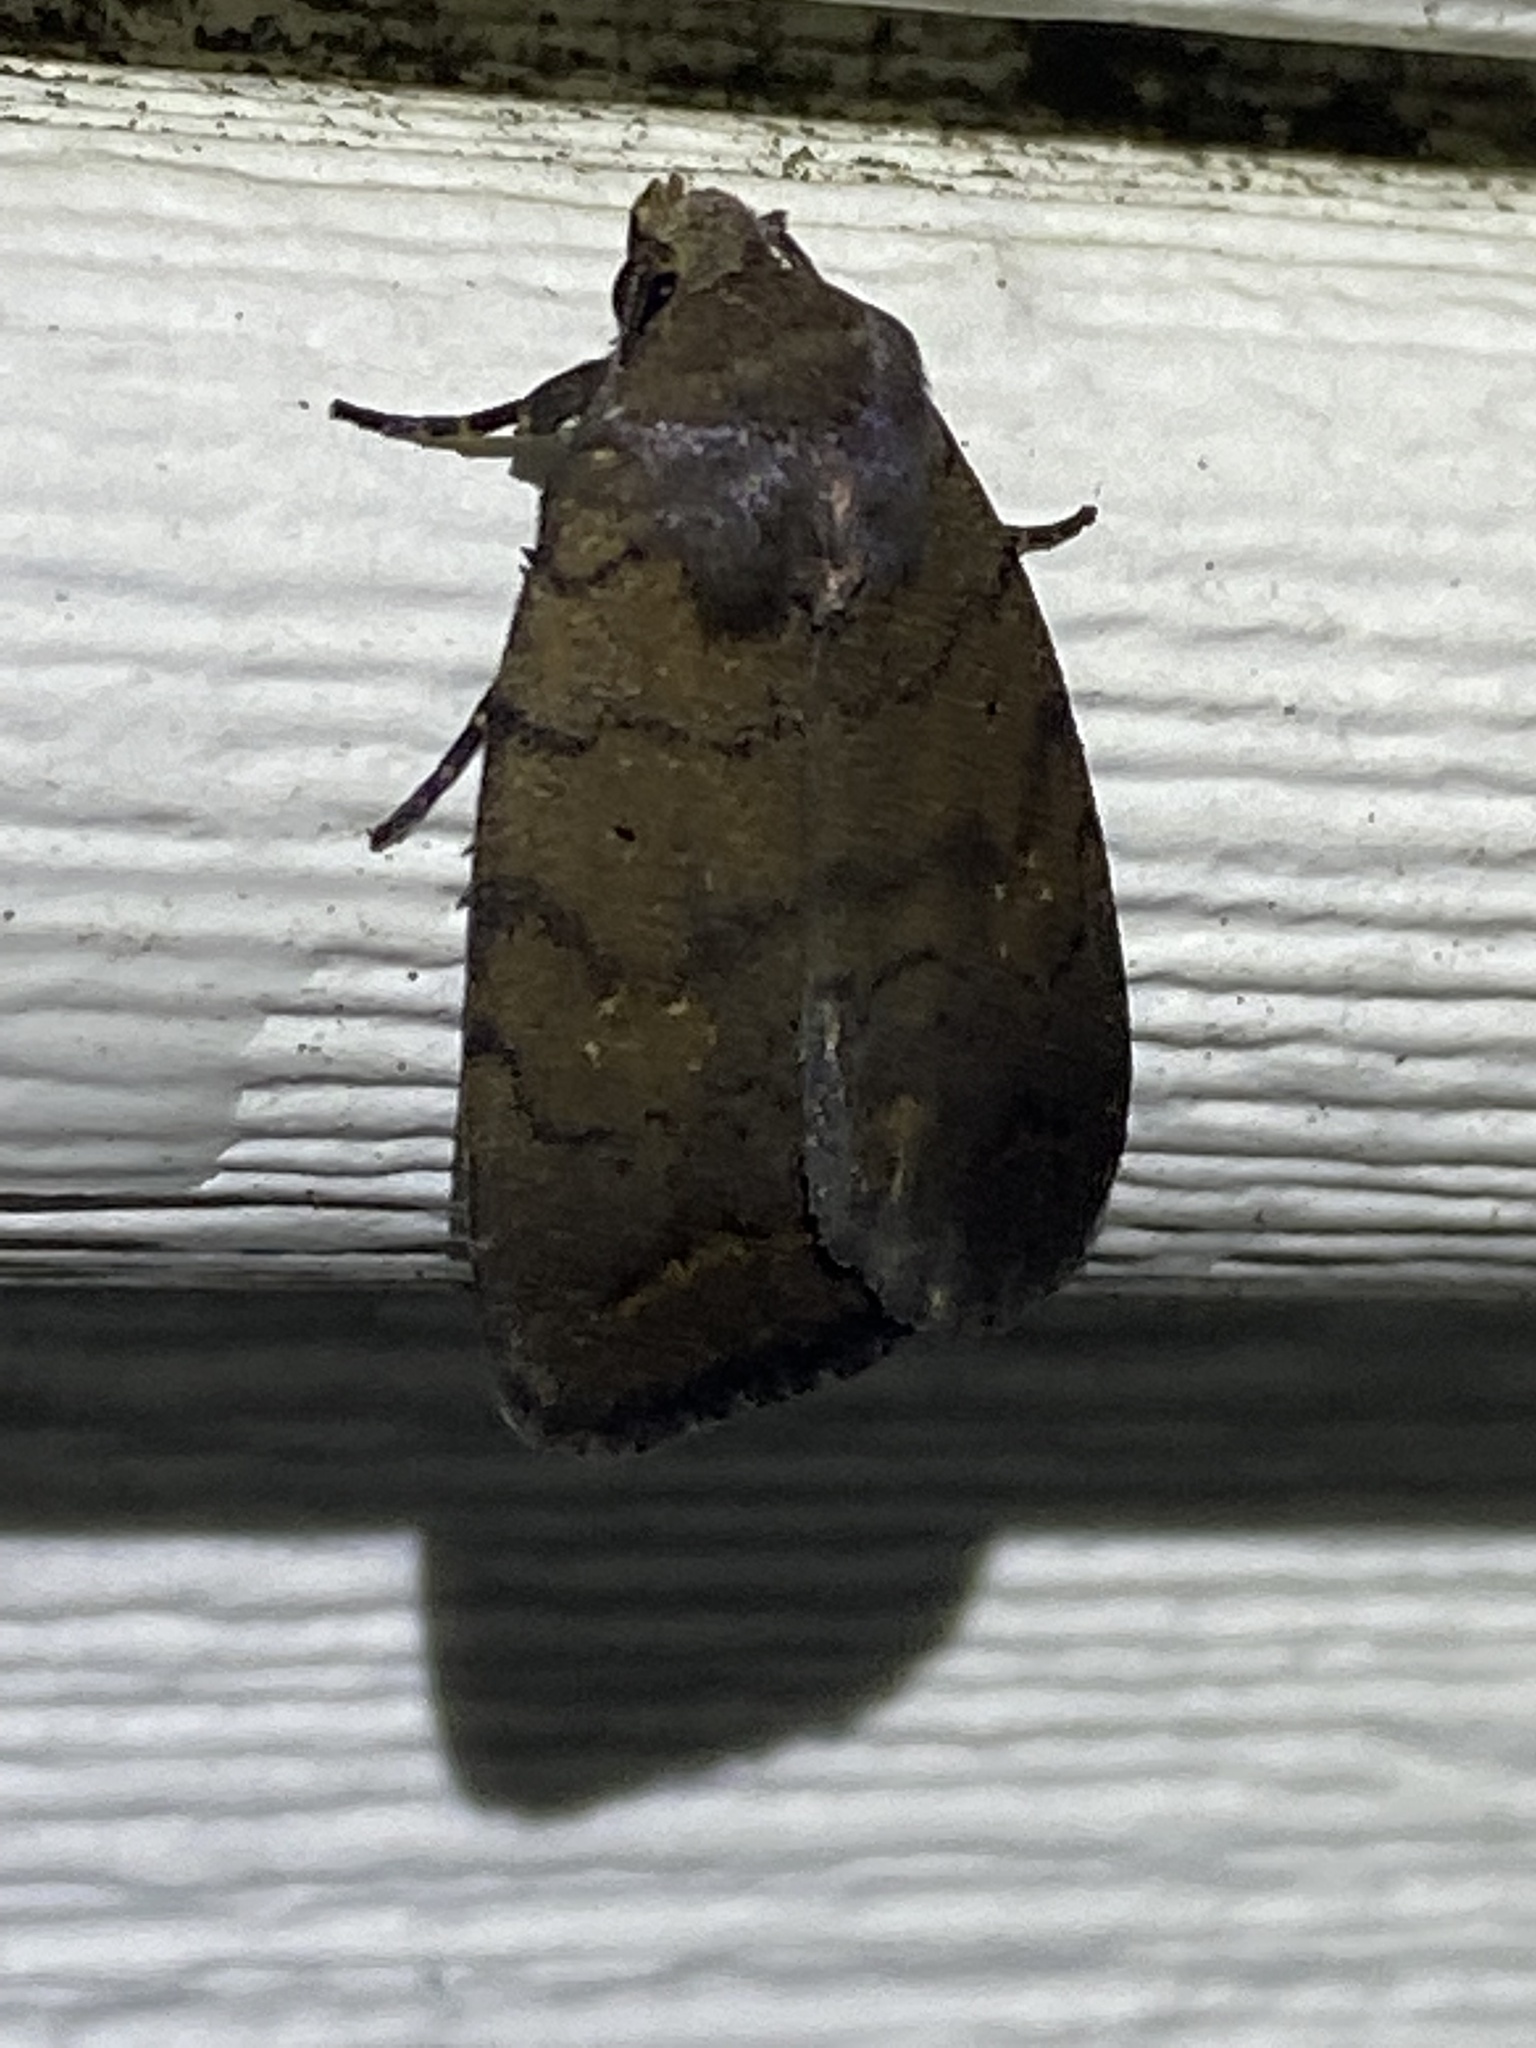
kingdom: Animalia
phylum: Arthropoda
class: Insecta
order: Lepidoptera
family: Noctuidae
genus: Athetis
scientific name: Athetis tarda
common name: Slowpoke moth
